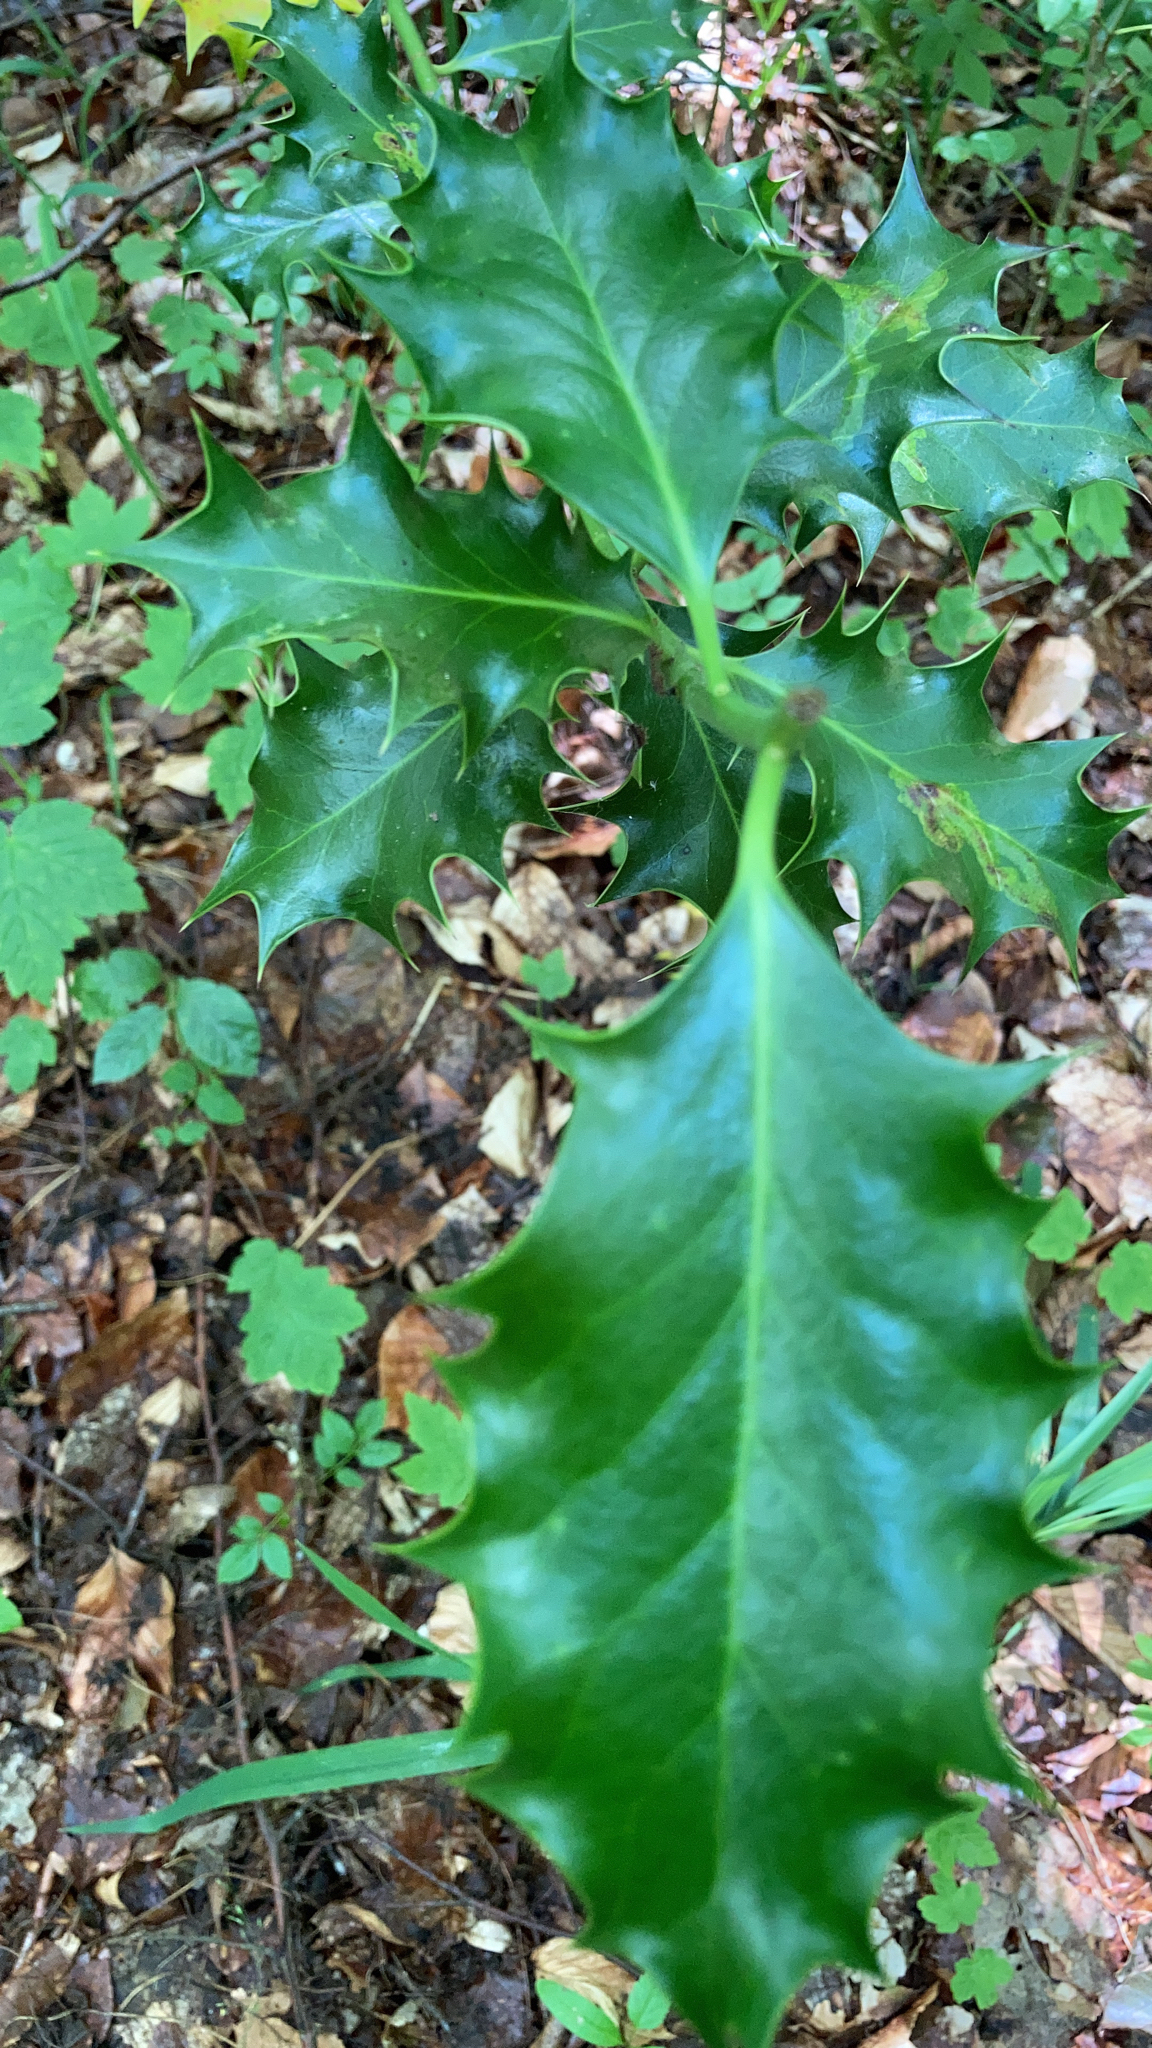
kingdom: Plantae
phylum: Tracheophyta
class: Magnoliopsida
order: Aquifoliales
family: Aquifoliaceae
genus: Ilex
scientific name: Ilex aquifolium
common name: English holly
